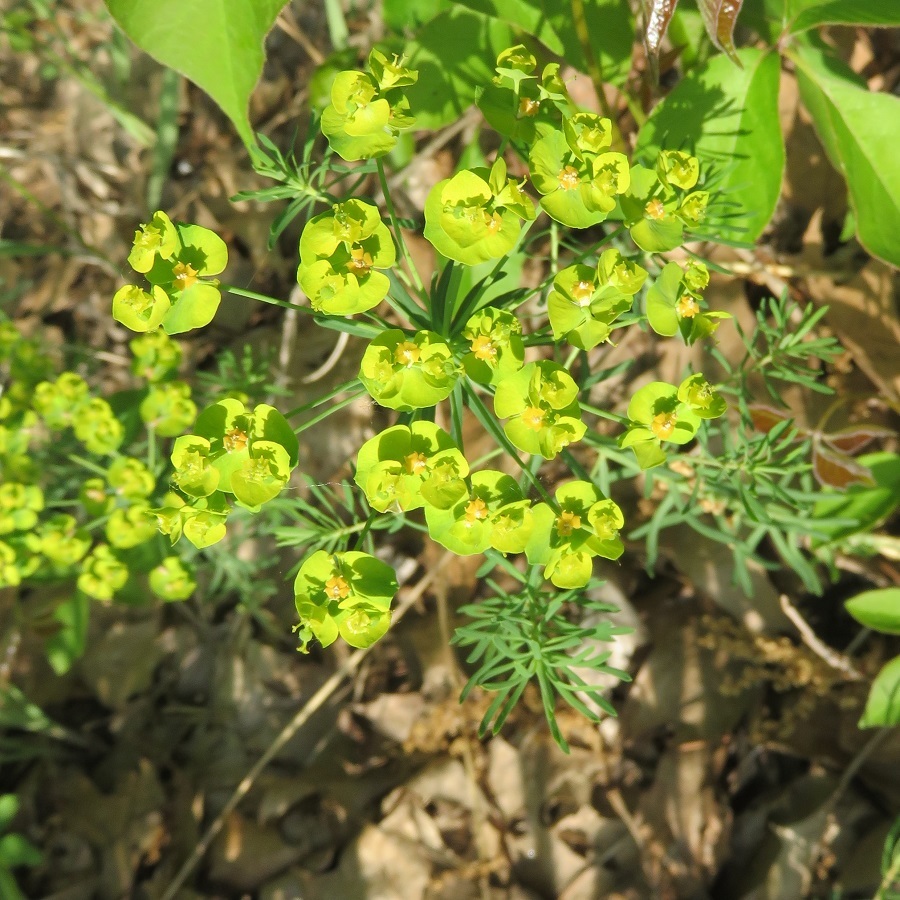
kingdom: Plantae
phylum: Tracheophyta
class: Magnoliopsida
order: Malpighiales
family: Euphorbiaceae
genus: Euphorbia
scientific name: Euphorbia virgata
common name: Leafy spurge
